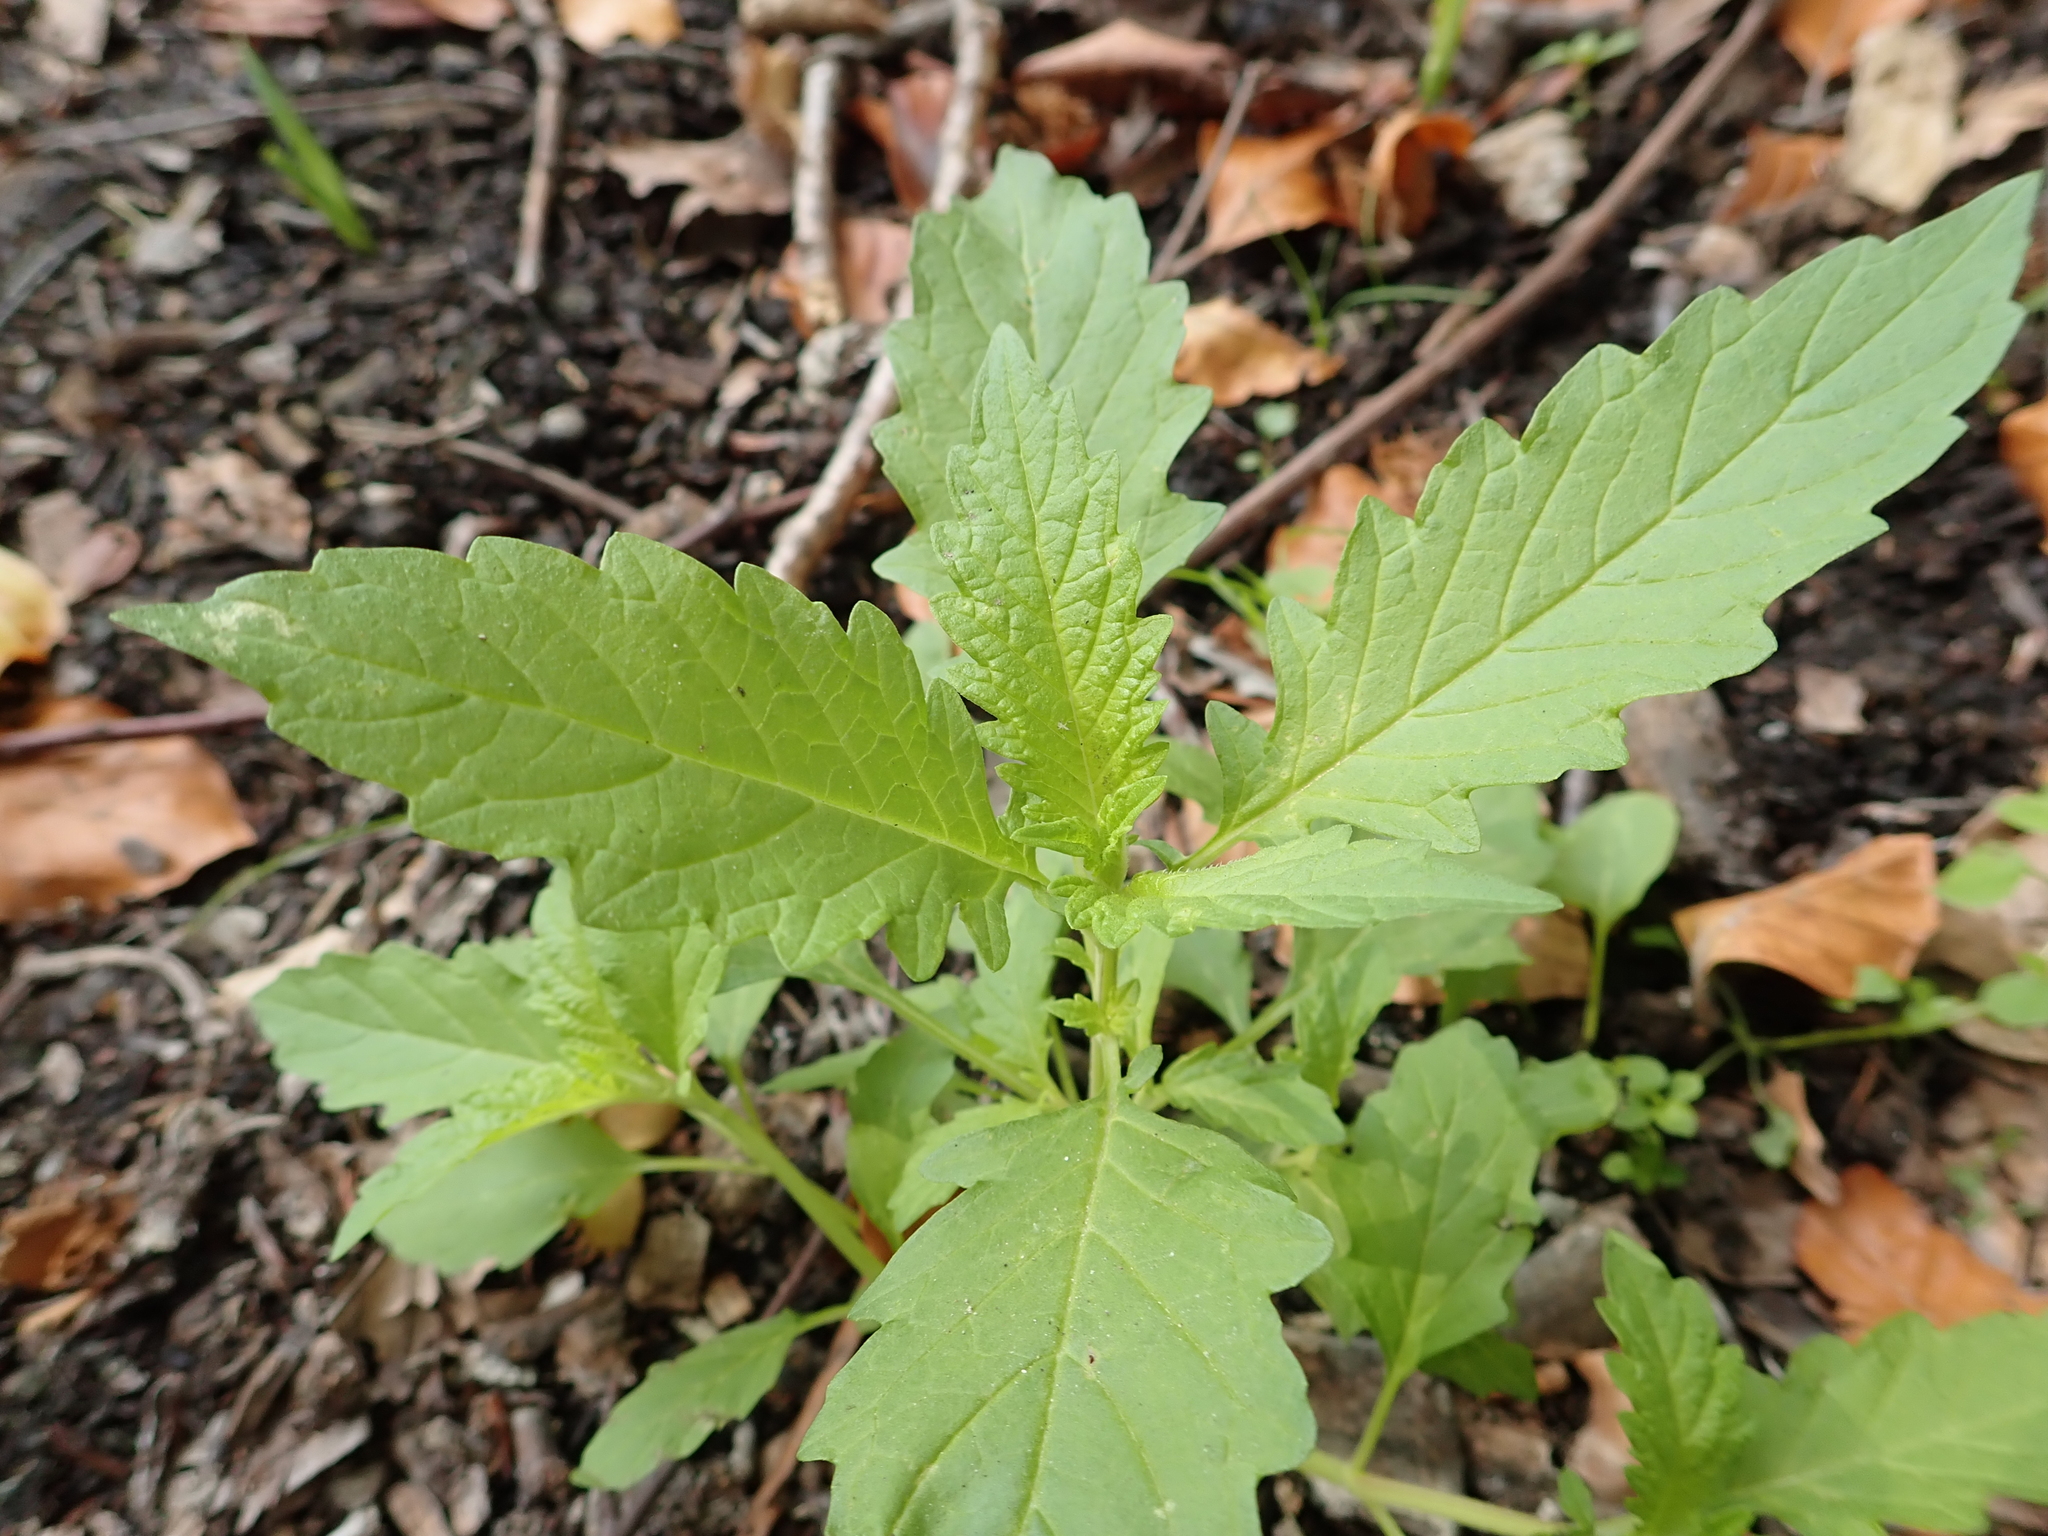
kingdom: Plantae
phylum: Tracheophyta
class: Magnoliopsida
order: Lamiales
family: Lamiaceae
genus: Lycopus
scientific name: Lycopus europaeus
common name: European bugleweed
